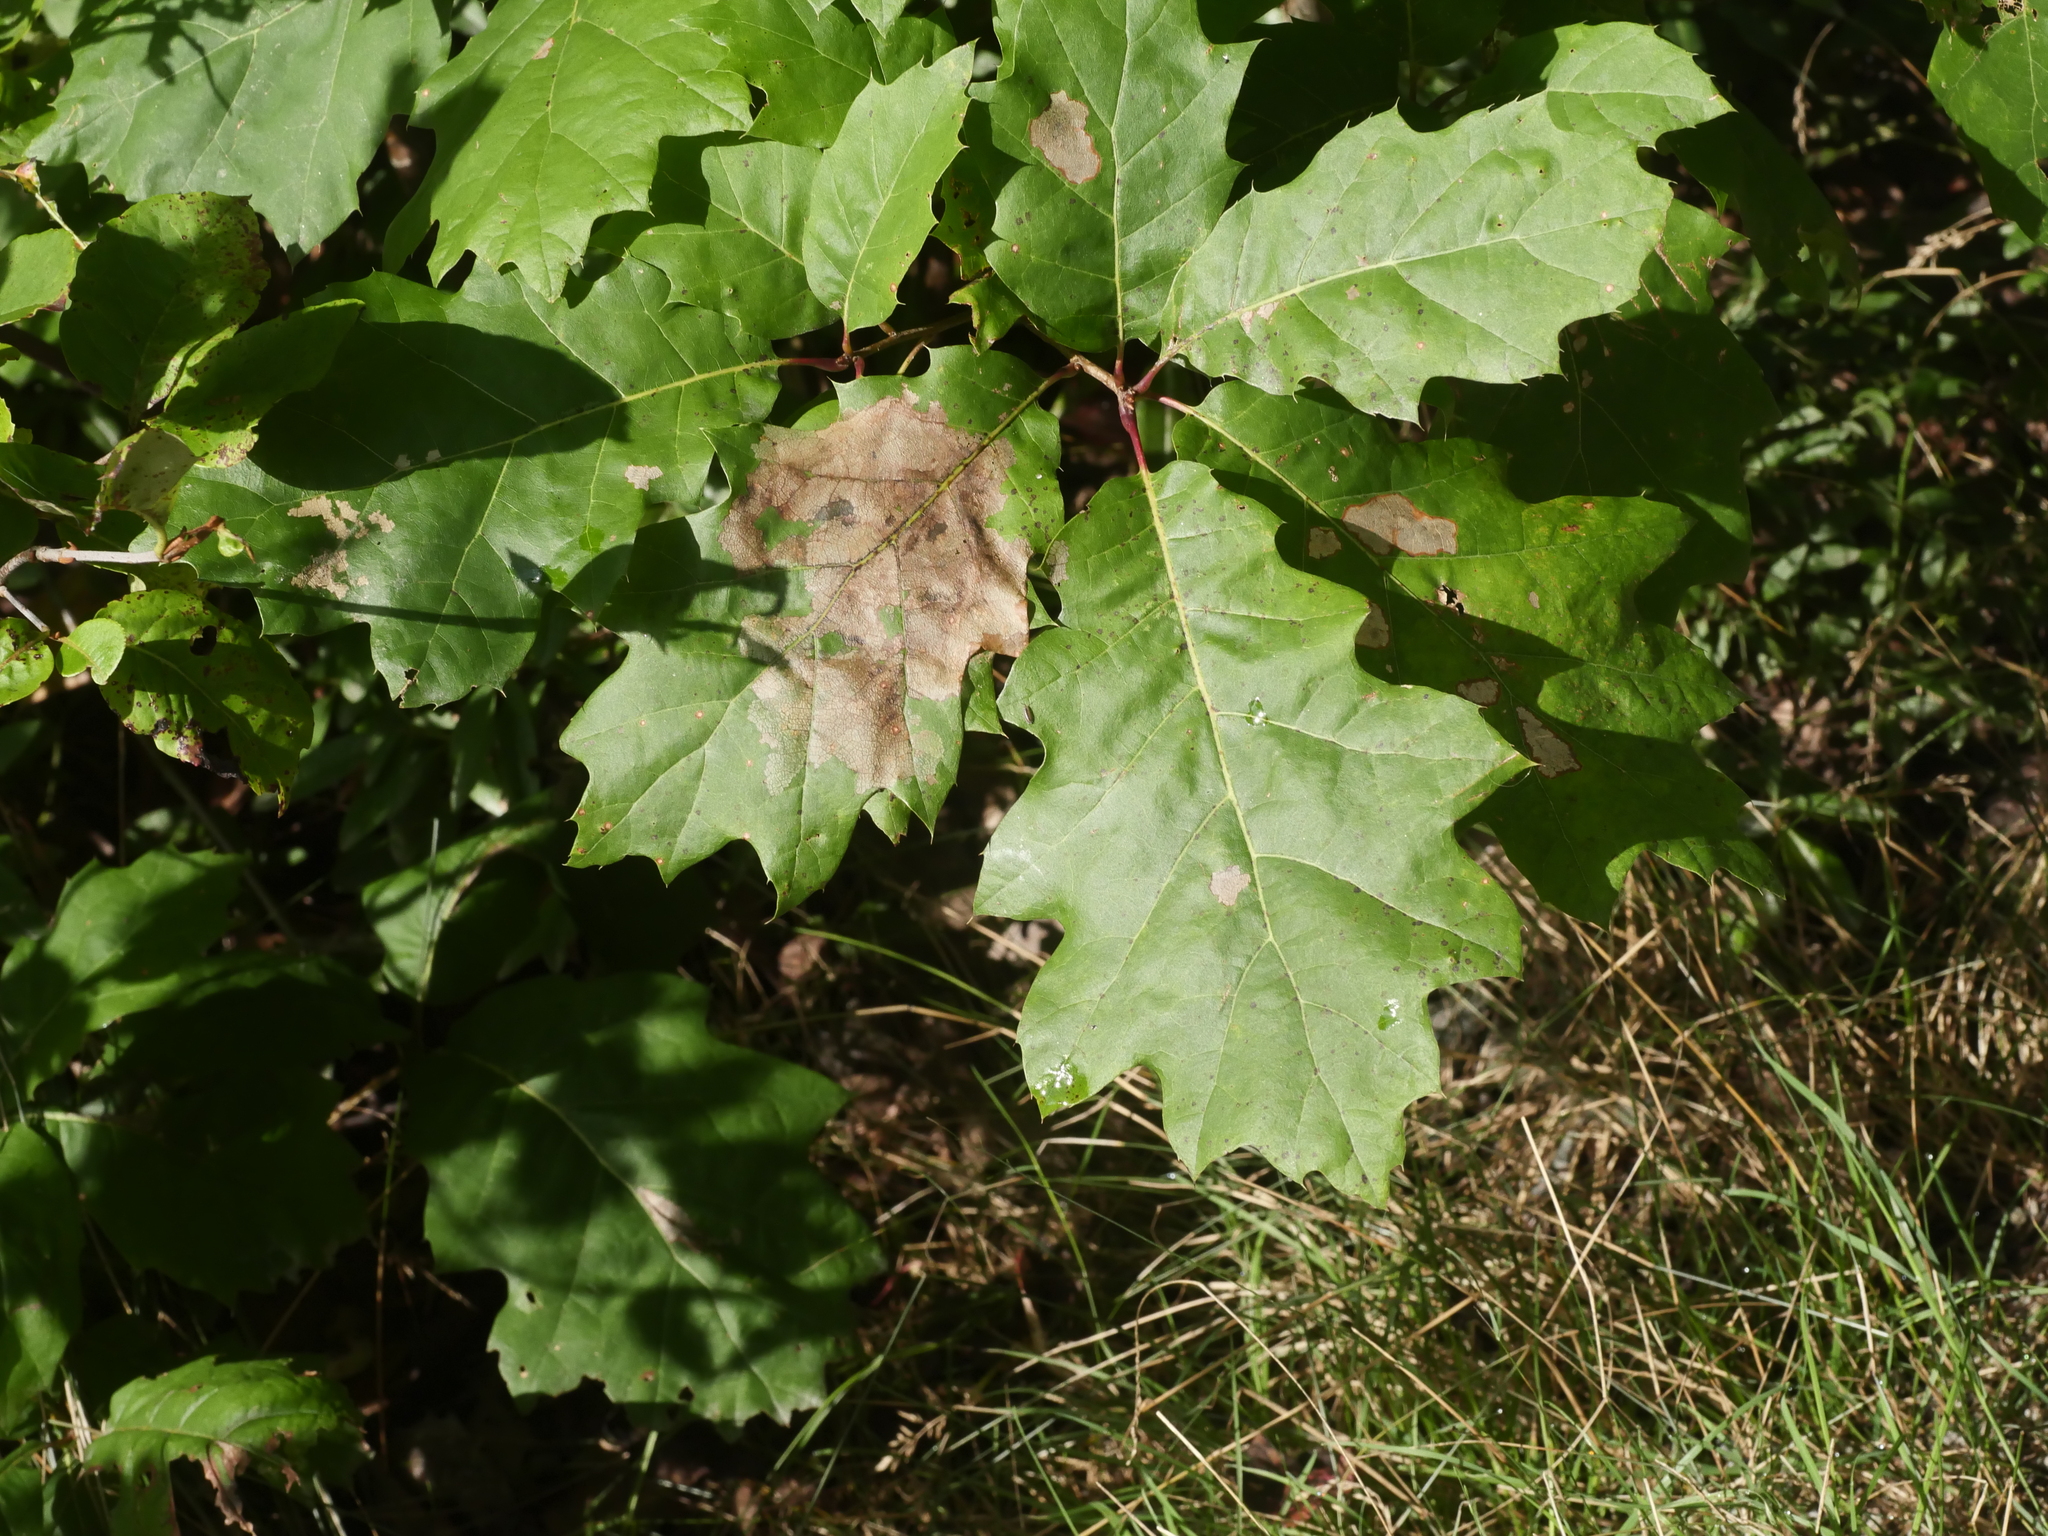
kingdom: Plantae
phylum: Tracheophyta
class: Magnoliopsida
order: Fagales
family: Fagaceae
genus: Quercus
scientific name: Quercus rubra
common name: Red oak
